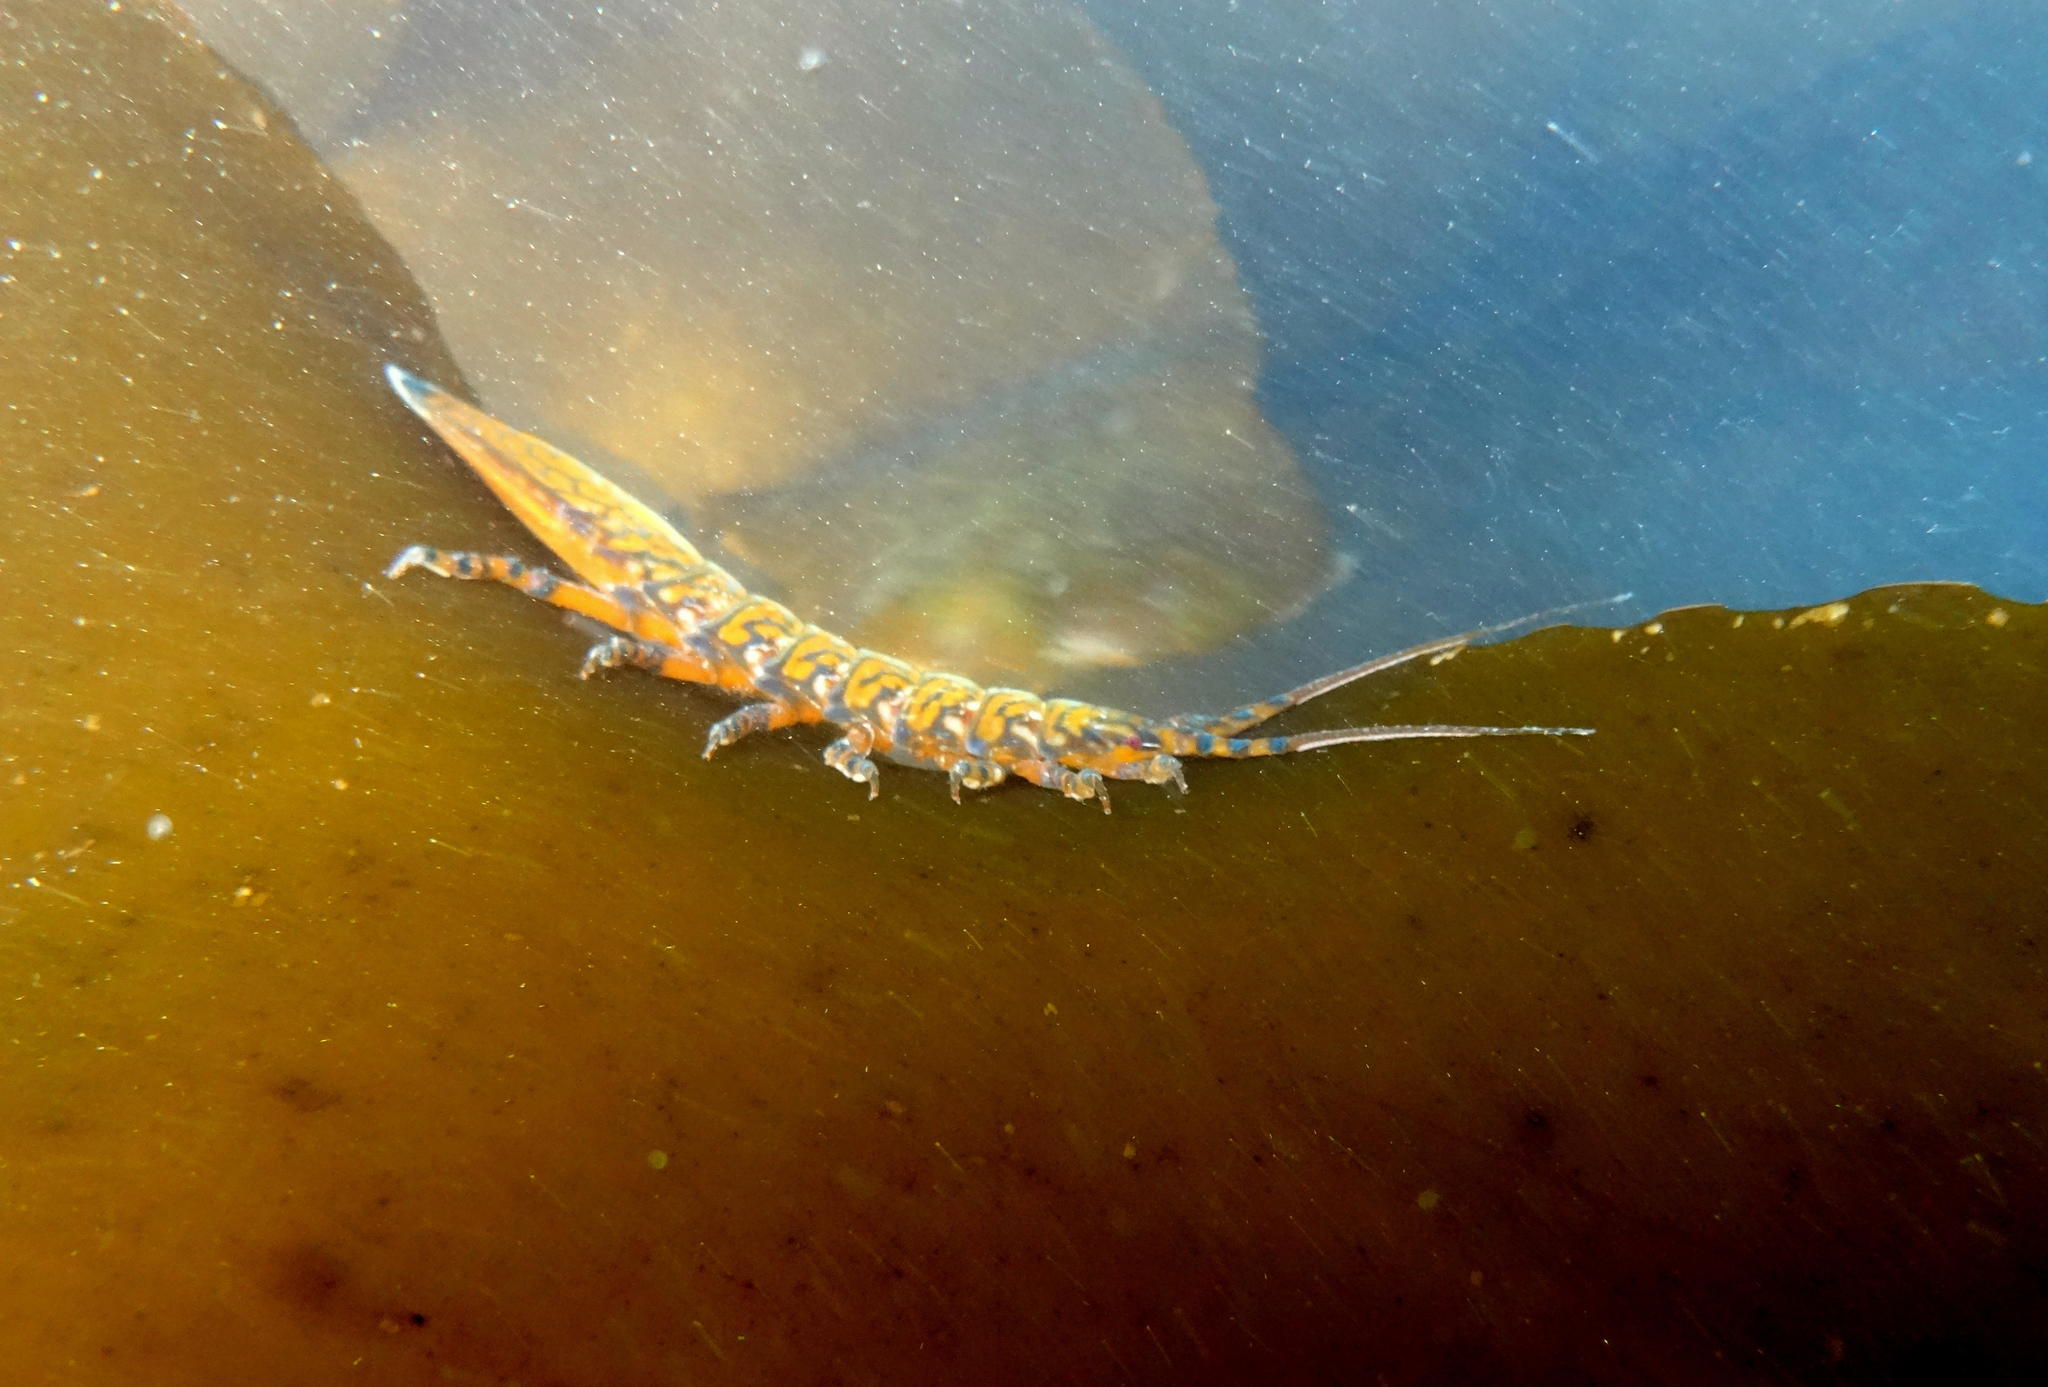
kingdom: Animalia
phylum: Arthropoda
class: Malacostraca
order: Isopoda
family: Idoteidae
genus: Paridotea
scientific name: Paridotea reticulata
